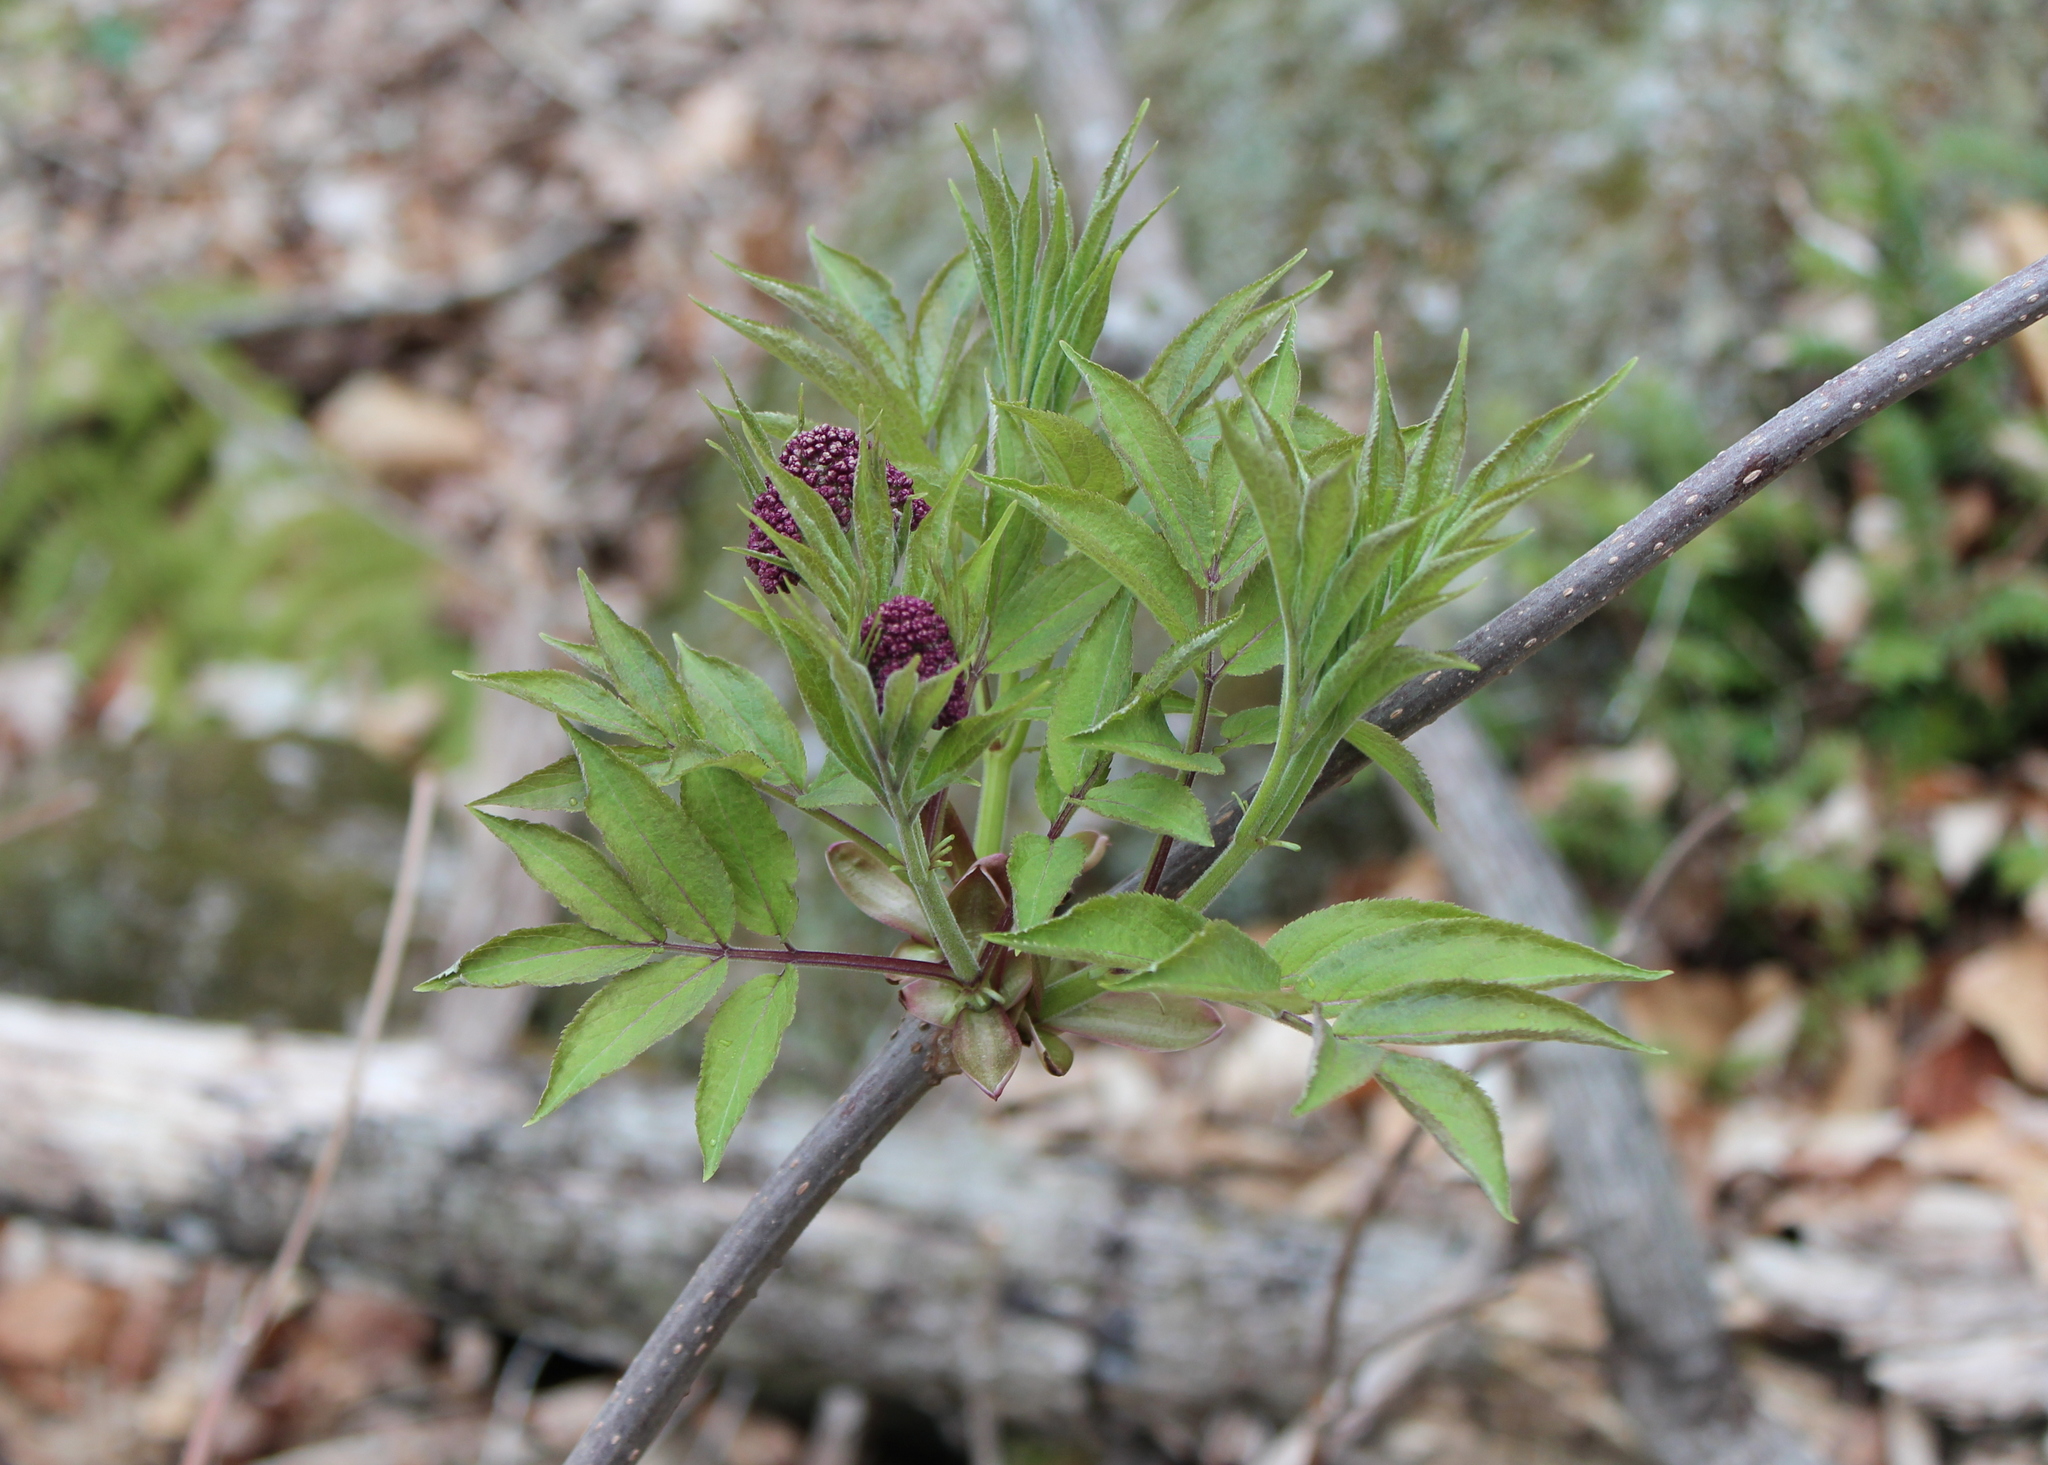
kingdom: Plantae
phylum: Tracheophyta
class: Magnoliopsida
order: Dipsacales
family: Viburnaceae
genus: Sambucus
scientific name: Sambucus racemosa
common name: Red-berried elder
